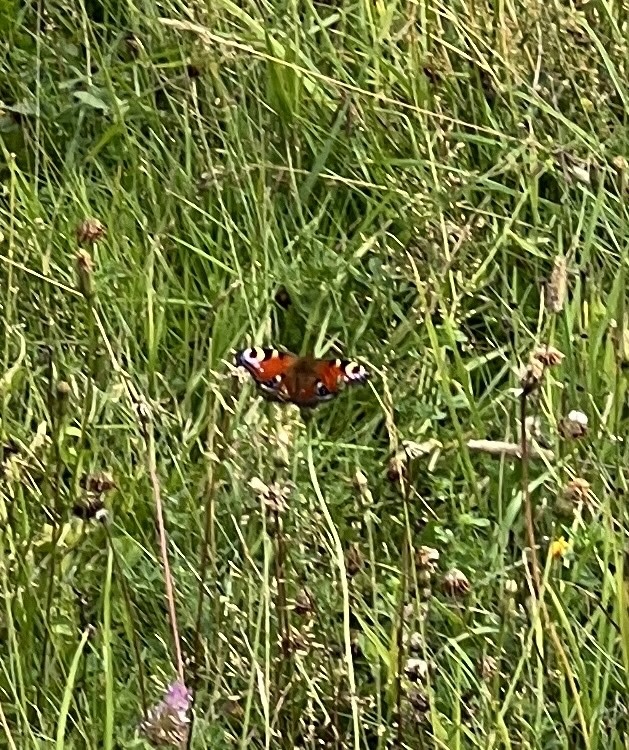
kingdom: Animalia
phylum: Arthropoda
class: Insecta
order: Lepidoptera
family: Nymphalidae
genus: Aglais
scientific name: Aglais io
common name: Peacock
